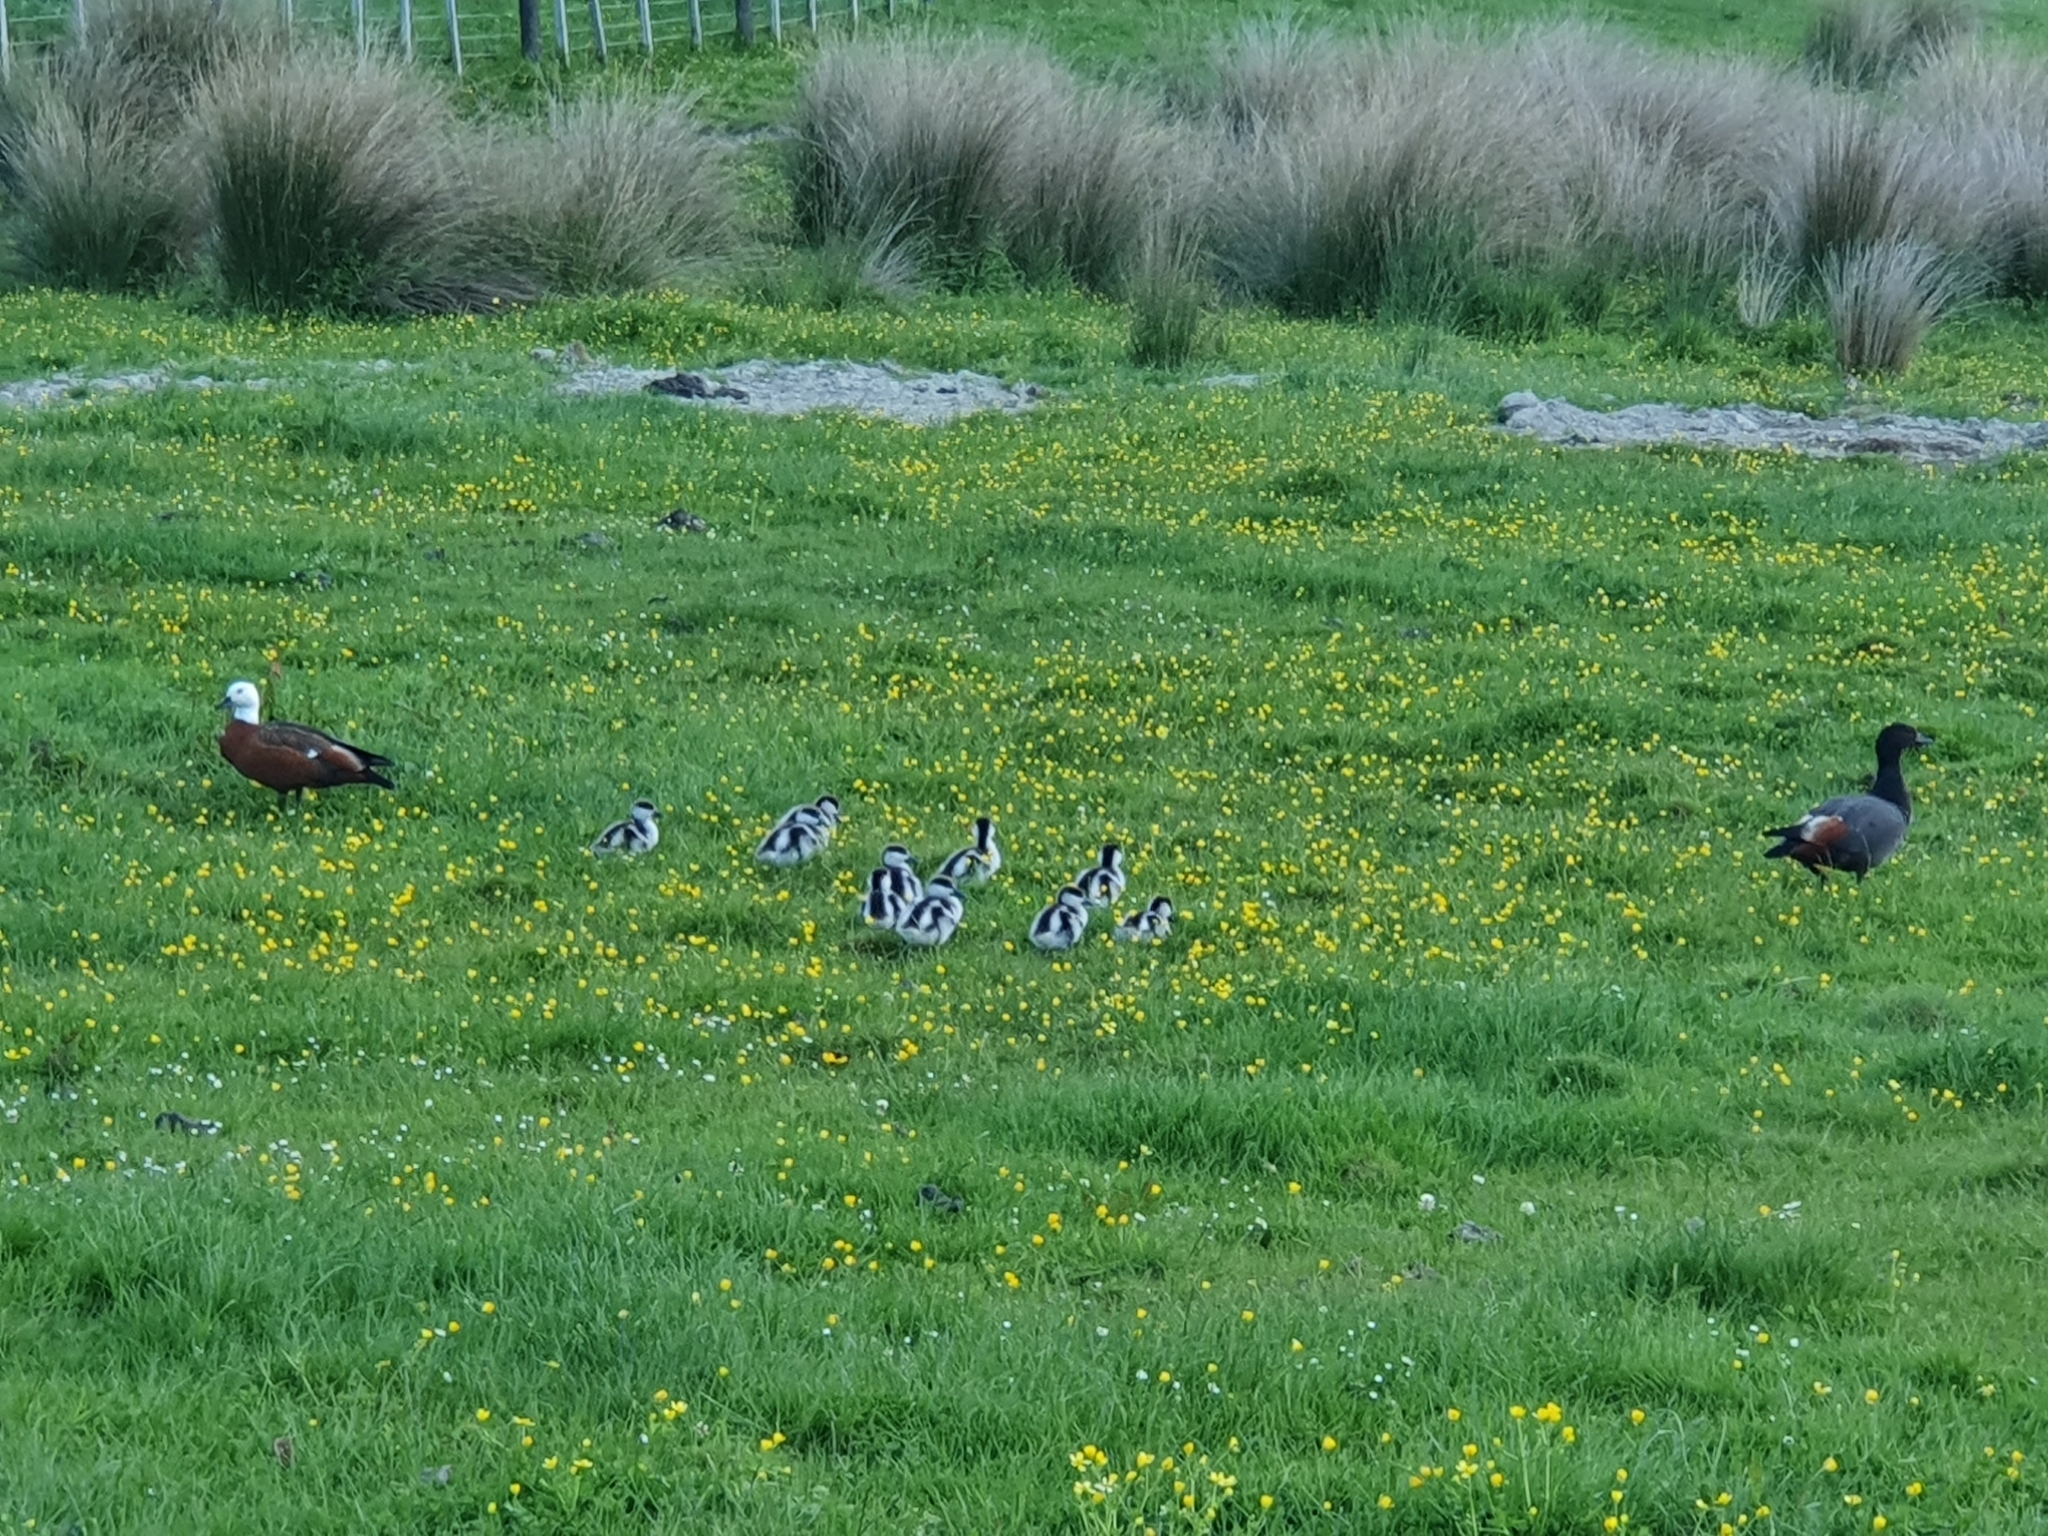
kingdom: Animalia
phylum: Chordata
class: Aves
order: Anseriformes
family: Anatidae
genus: Tadorna
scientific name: Tadorna variegata
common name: Paradise shelduck
